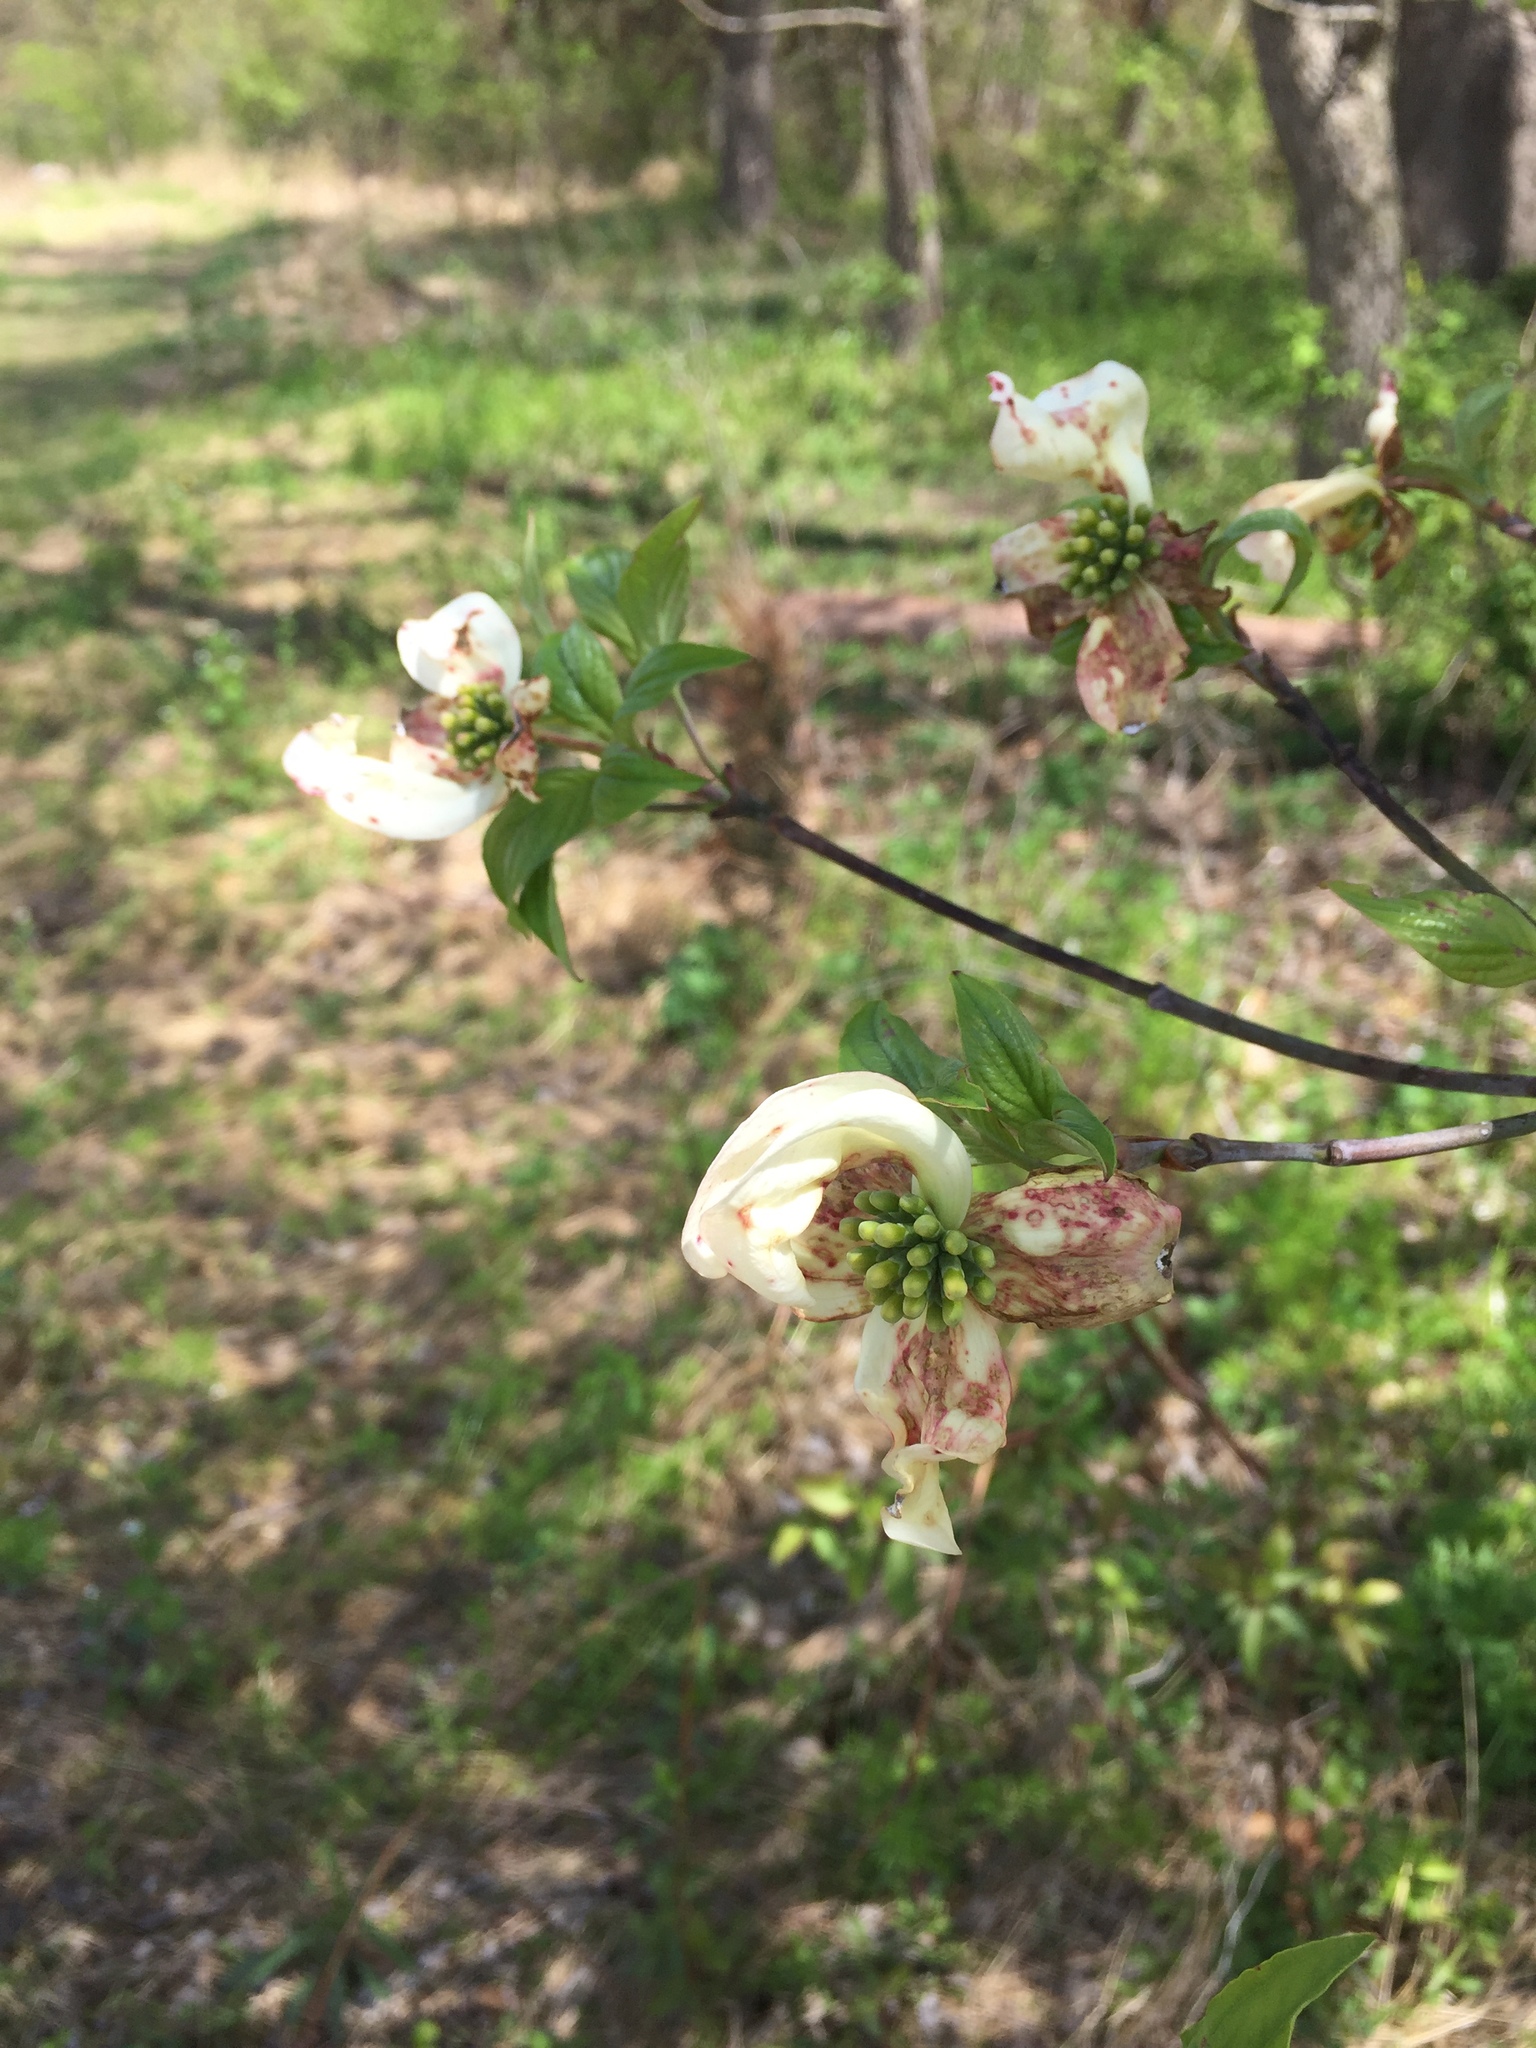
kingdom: Plantae
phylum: Tracheophyta
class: Magnoliopsida
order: Cornales
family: Cornaceae
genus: Cornus
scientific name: Cornus florida
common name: Flowering dogwood
